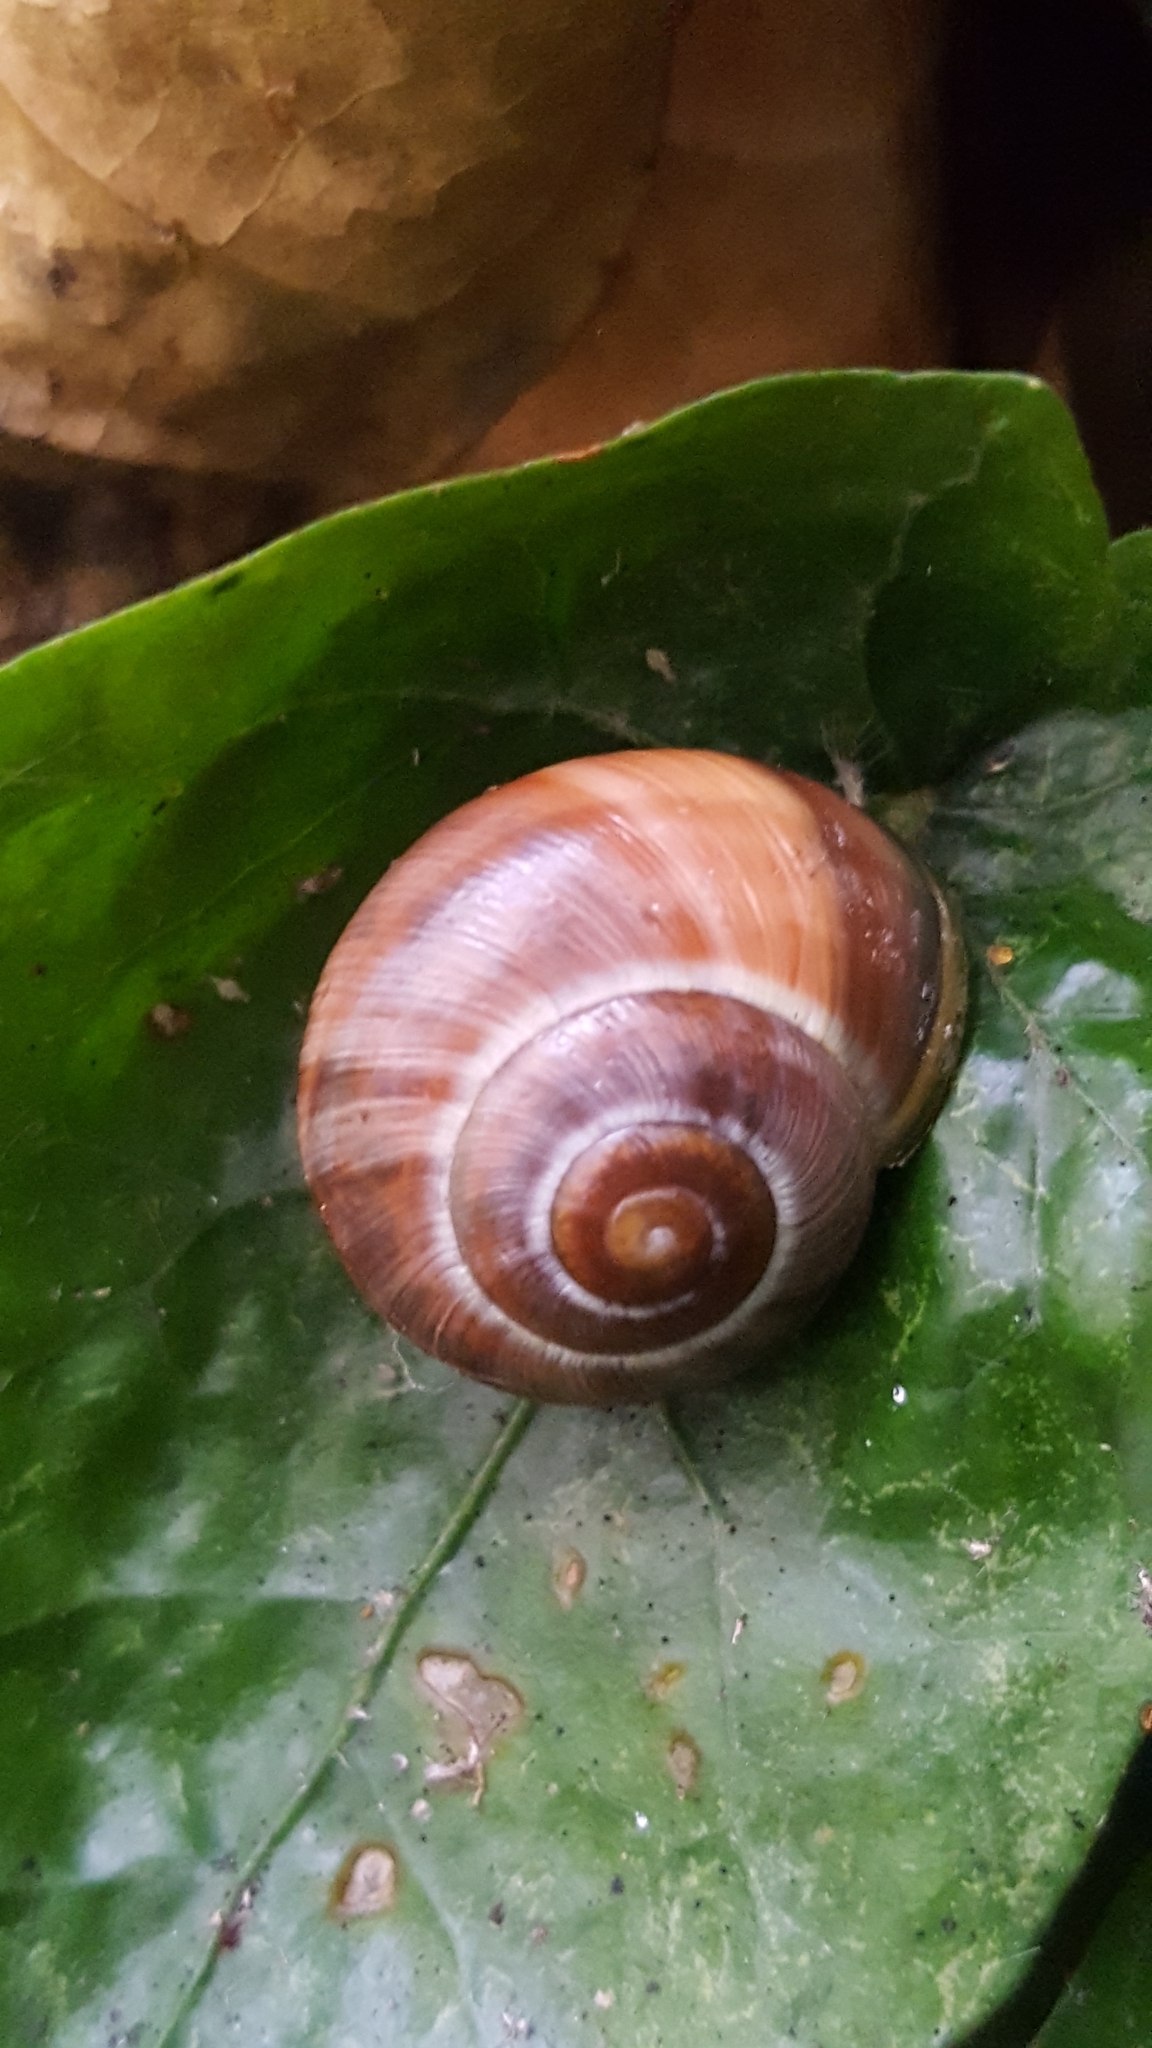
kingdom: Animalia
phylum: Mollusca
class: Gastropoda
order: Stylommatophora
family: Helicidae
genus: Cepaea
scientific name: Cepaea
